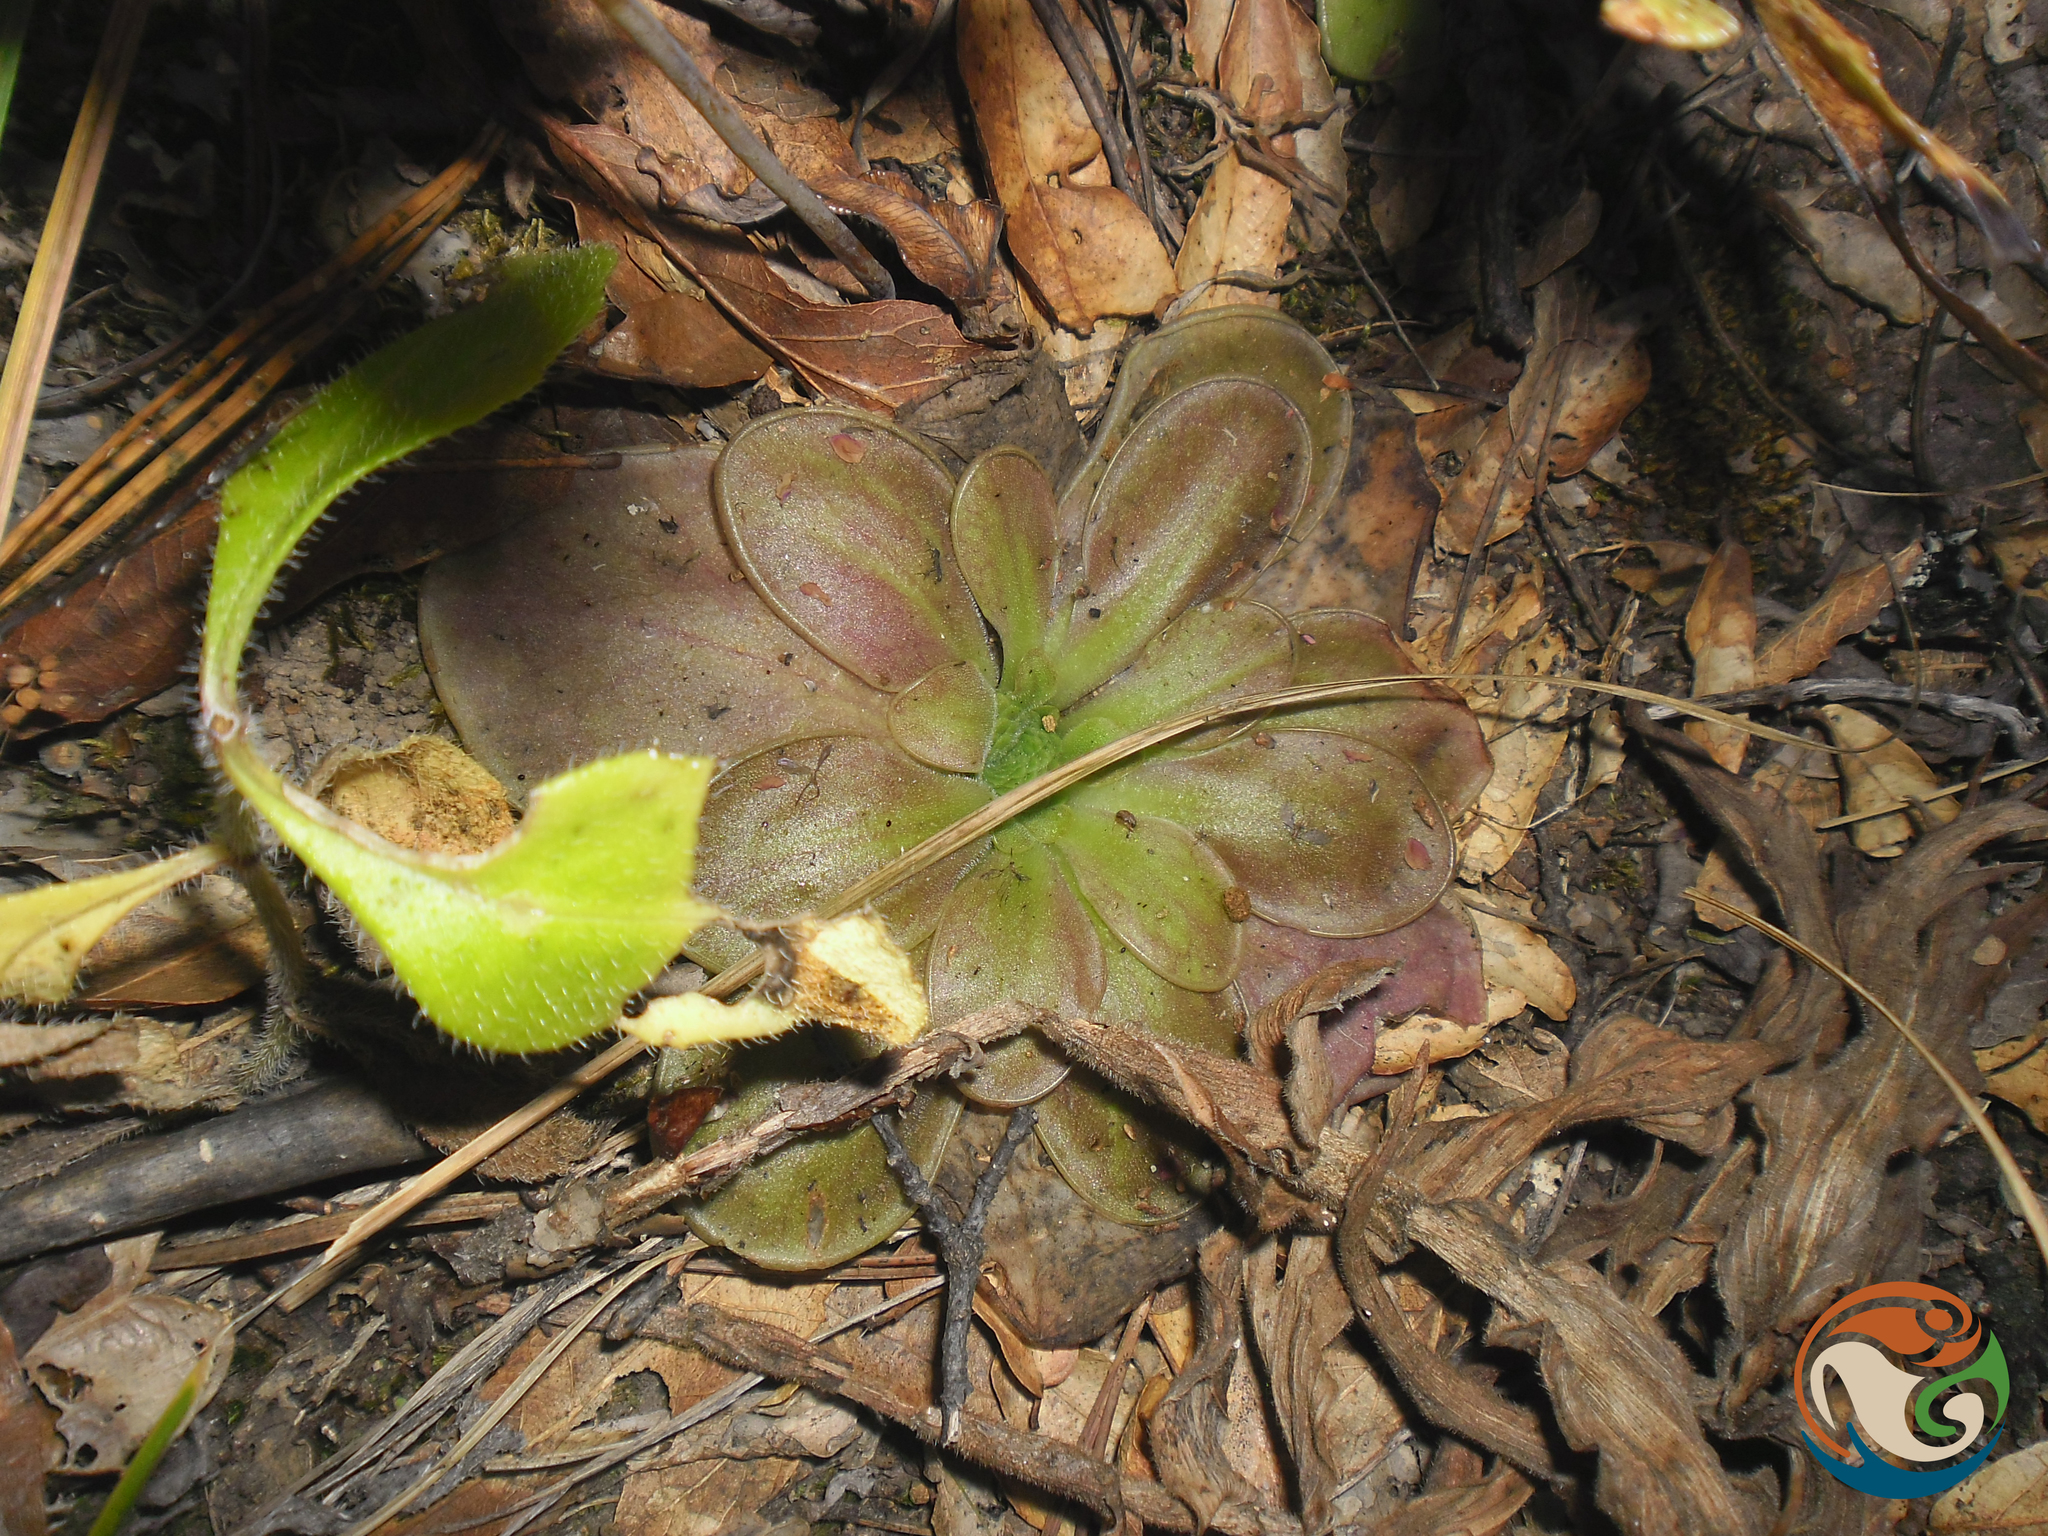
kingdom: Plantae
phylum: Tracheophyta
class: Magnoliopsida
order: Lamiales
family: Lentibulariaceae
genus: Pinguicula
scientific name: Pinguicula moranensis
